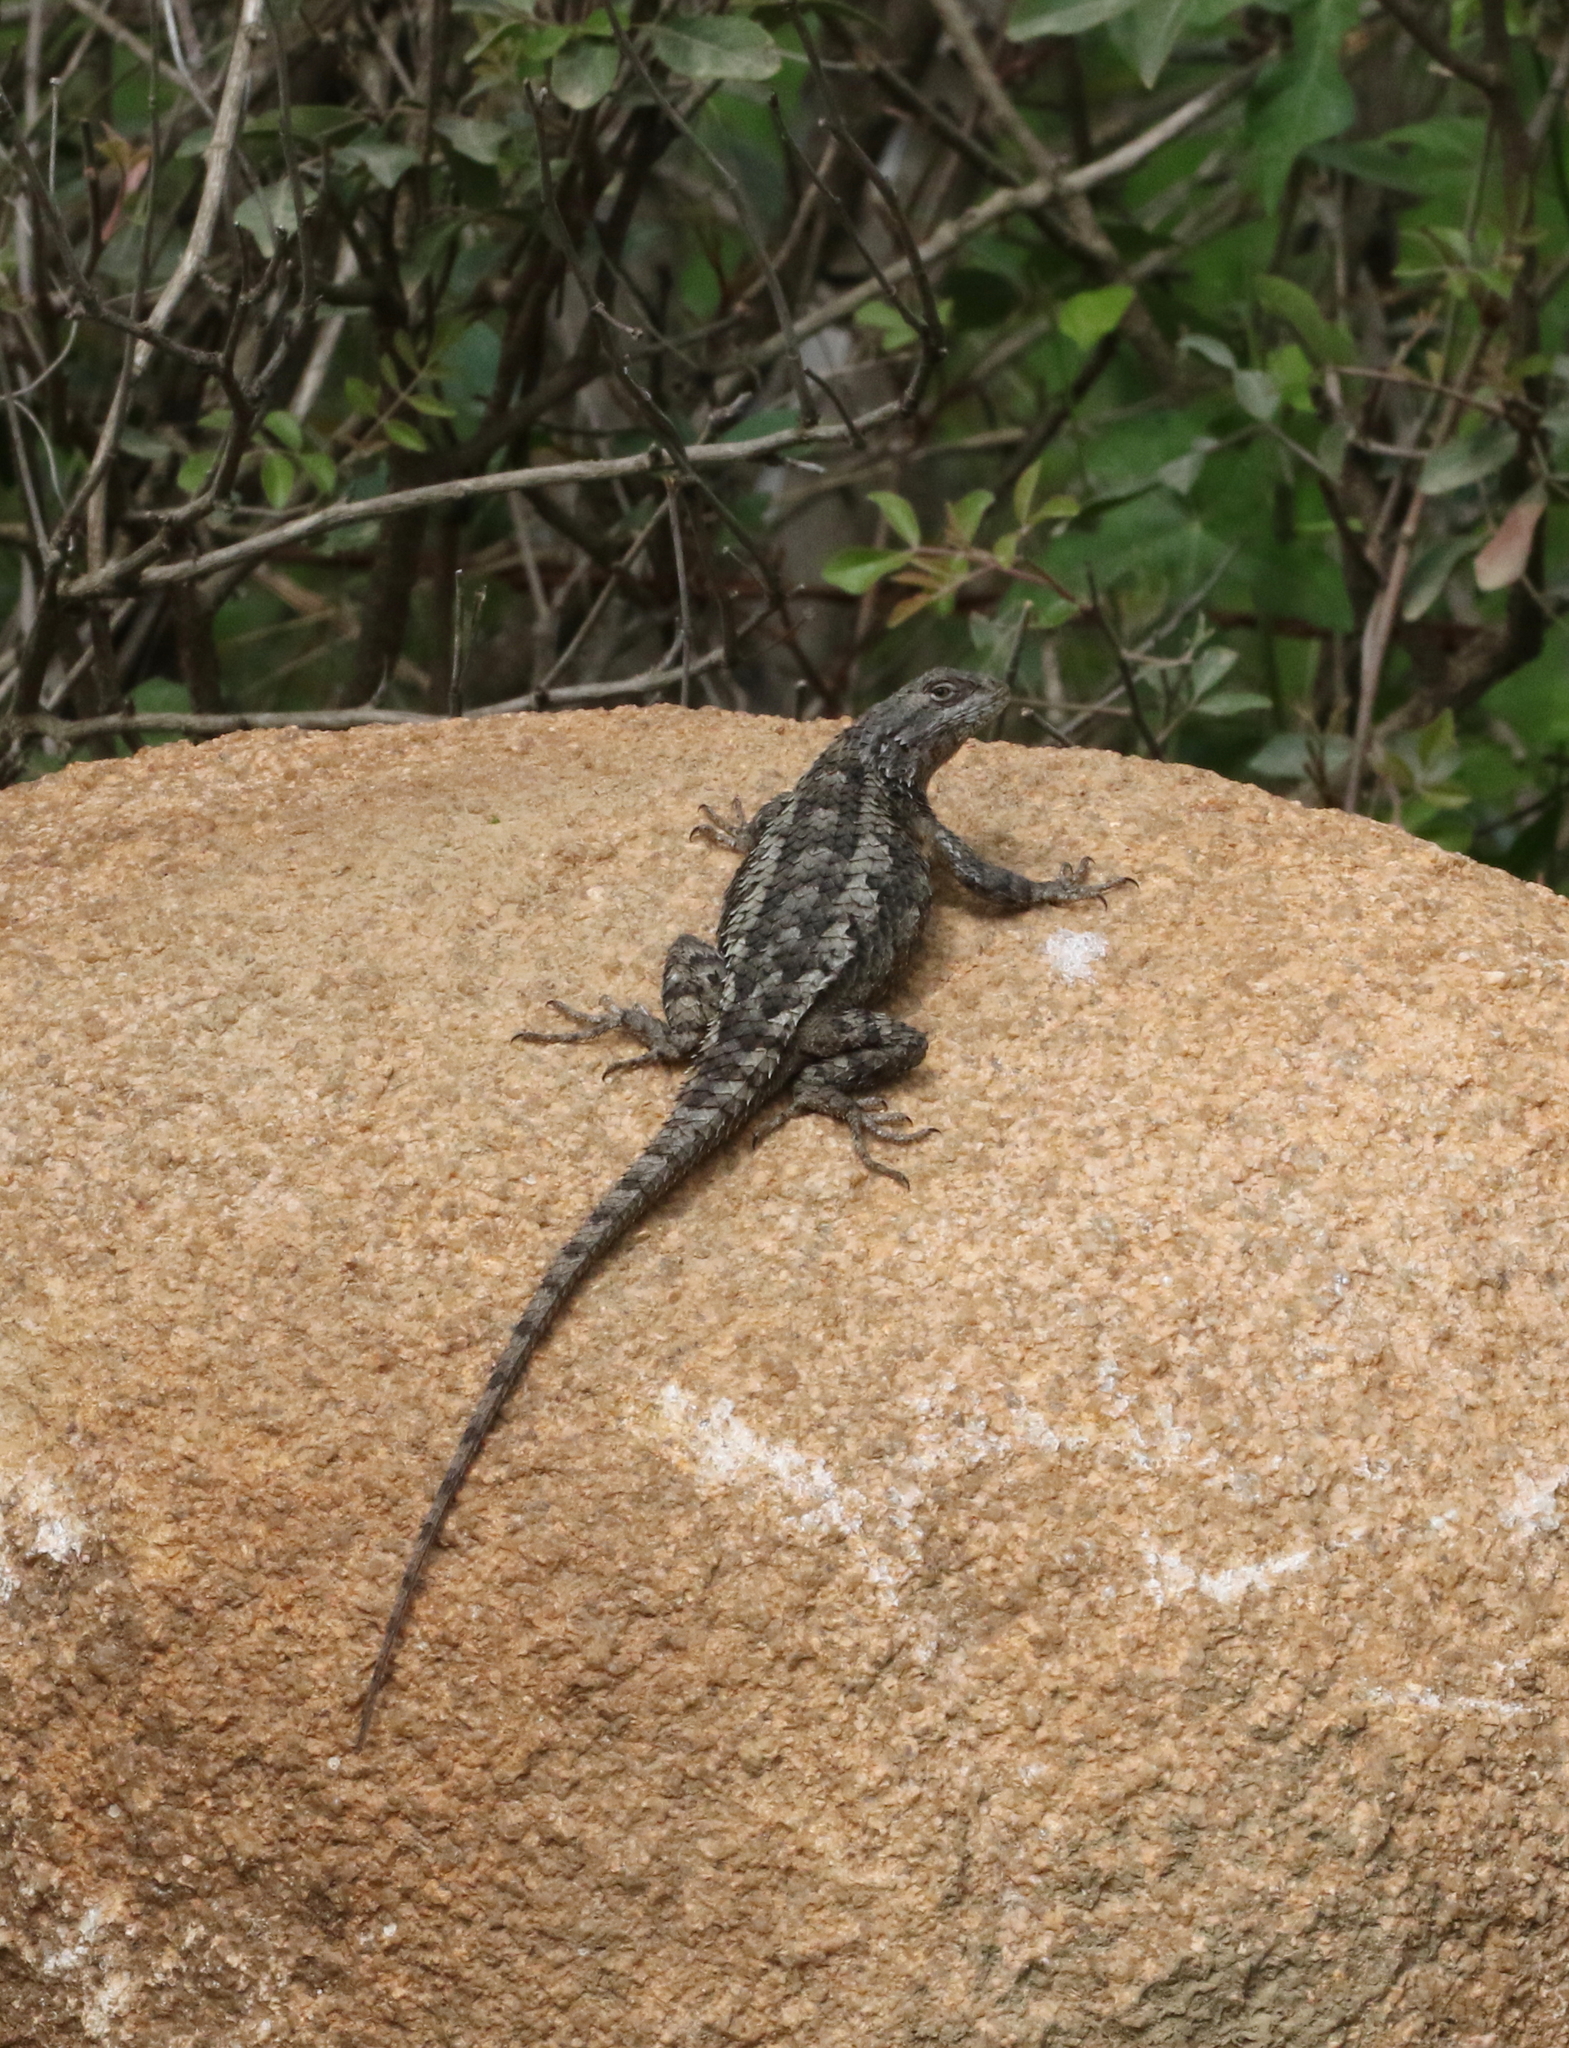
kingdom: Animalia
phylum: Chordata
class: Squamata
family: Phrynosomatidae
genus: Sceloporus
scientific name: Sceloporus olivaceus
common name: Texas spiny lizard
